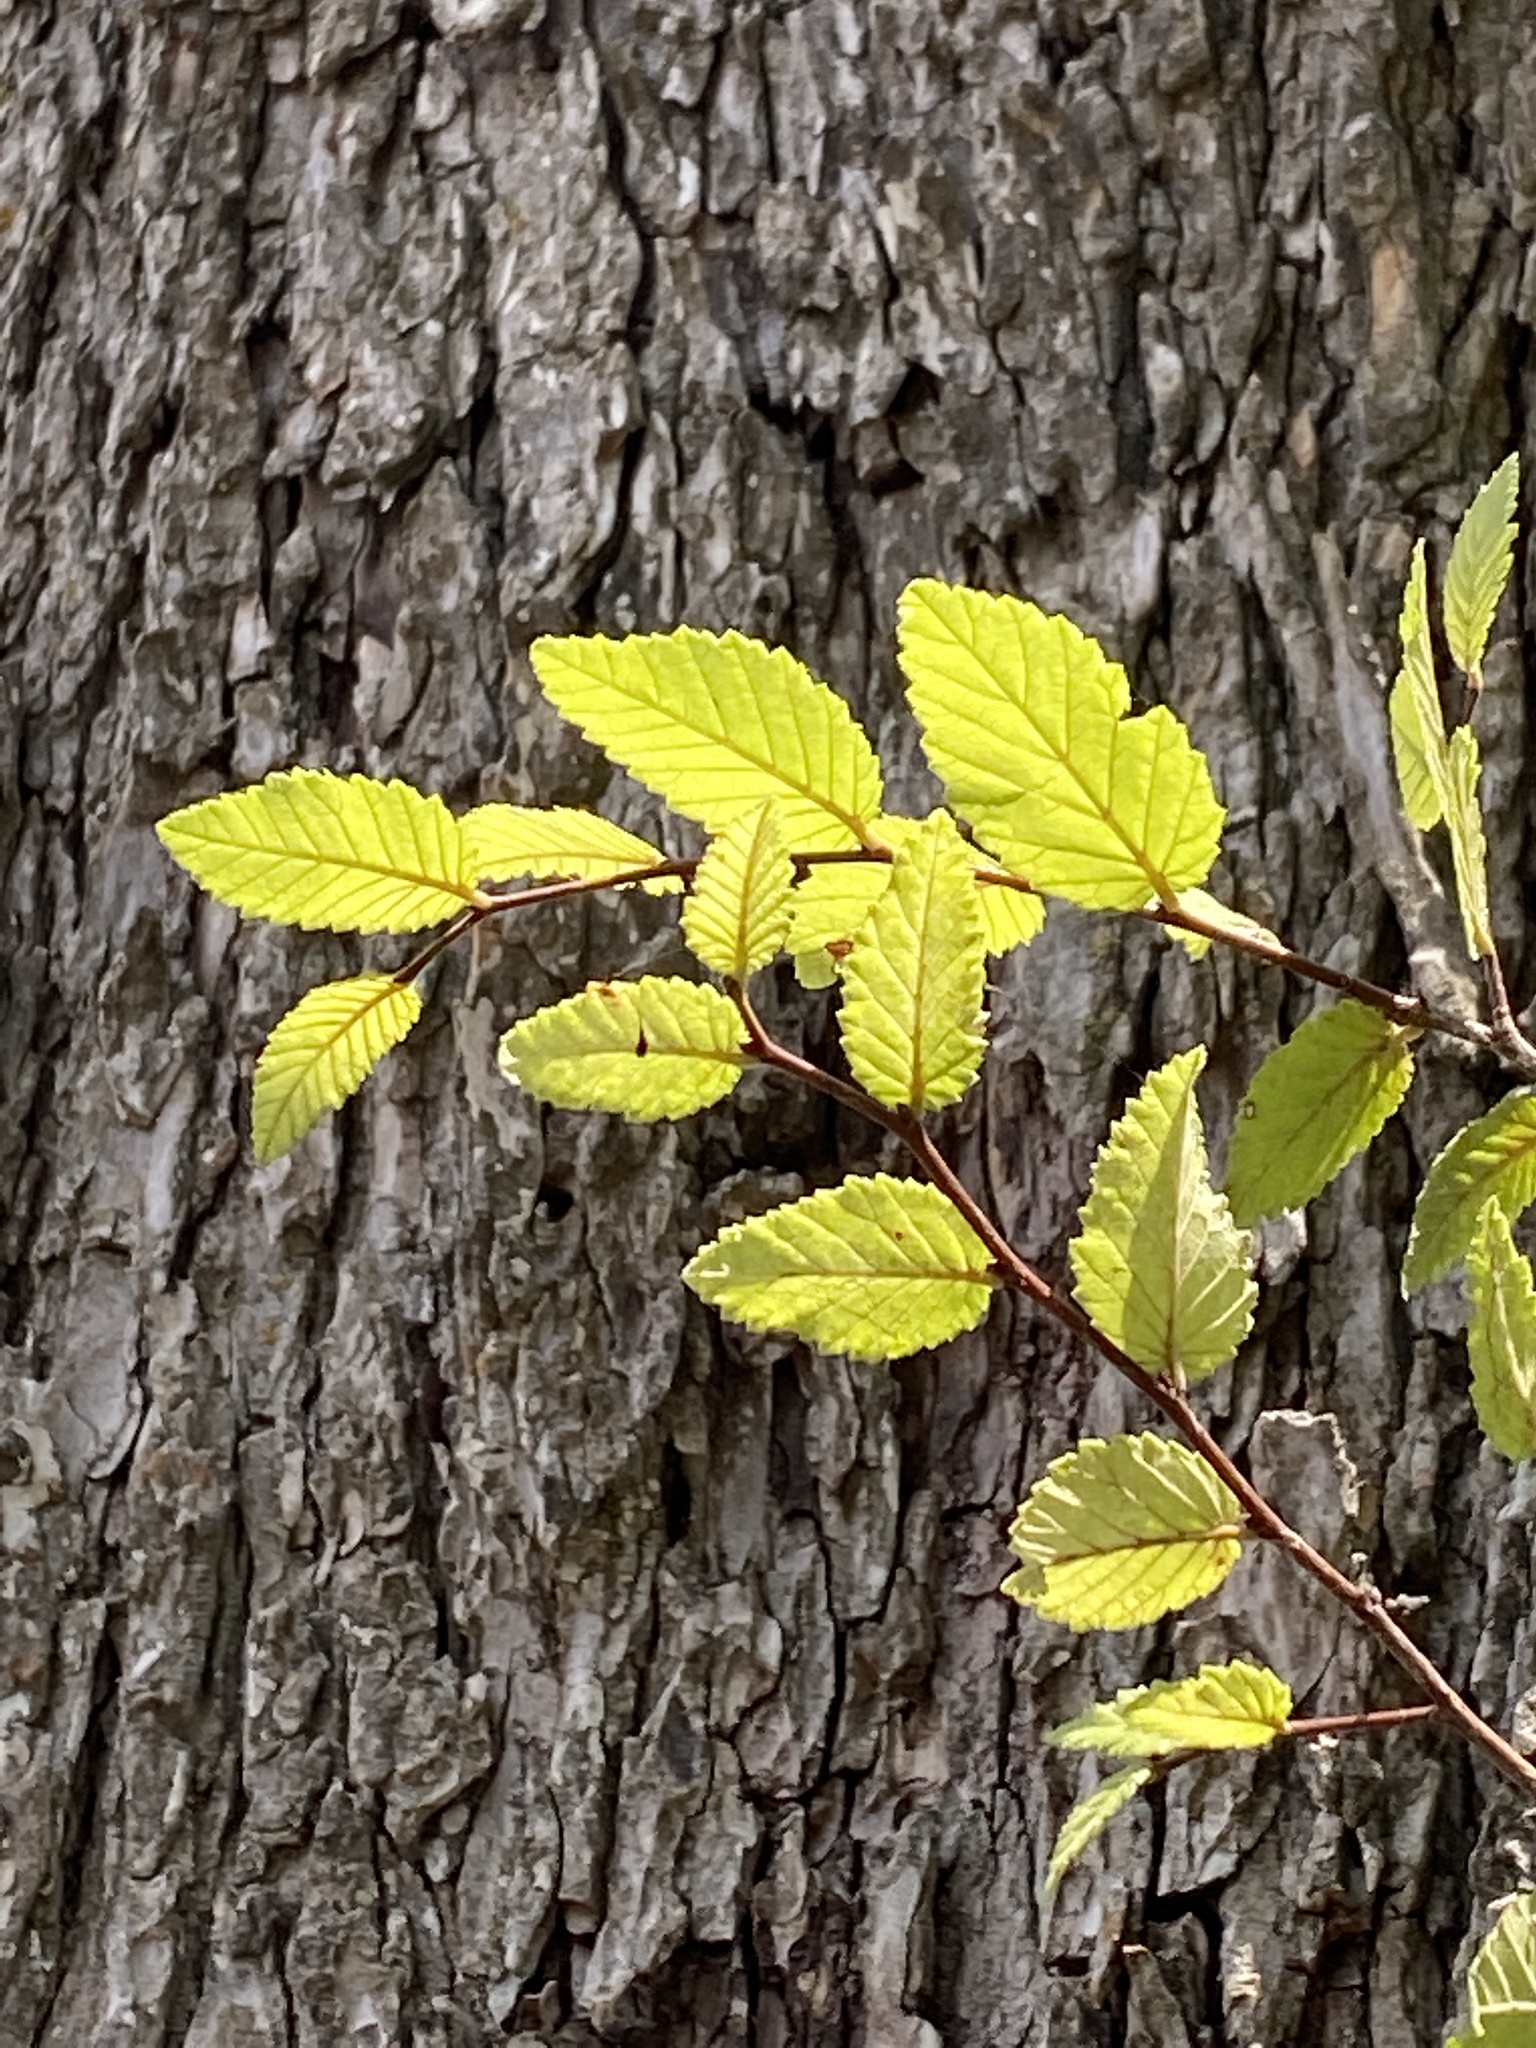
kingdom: Plantae
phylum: Tracheophyta
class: Magnoliopsida
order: Rosales
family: Ulmaceae
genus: Ulmus
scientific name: Ulmus crassifolia
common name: Basket elm
